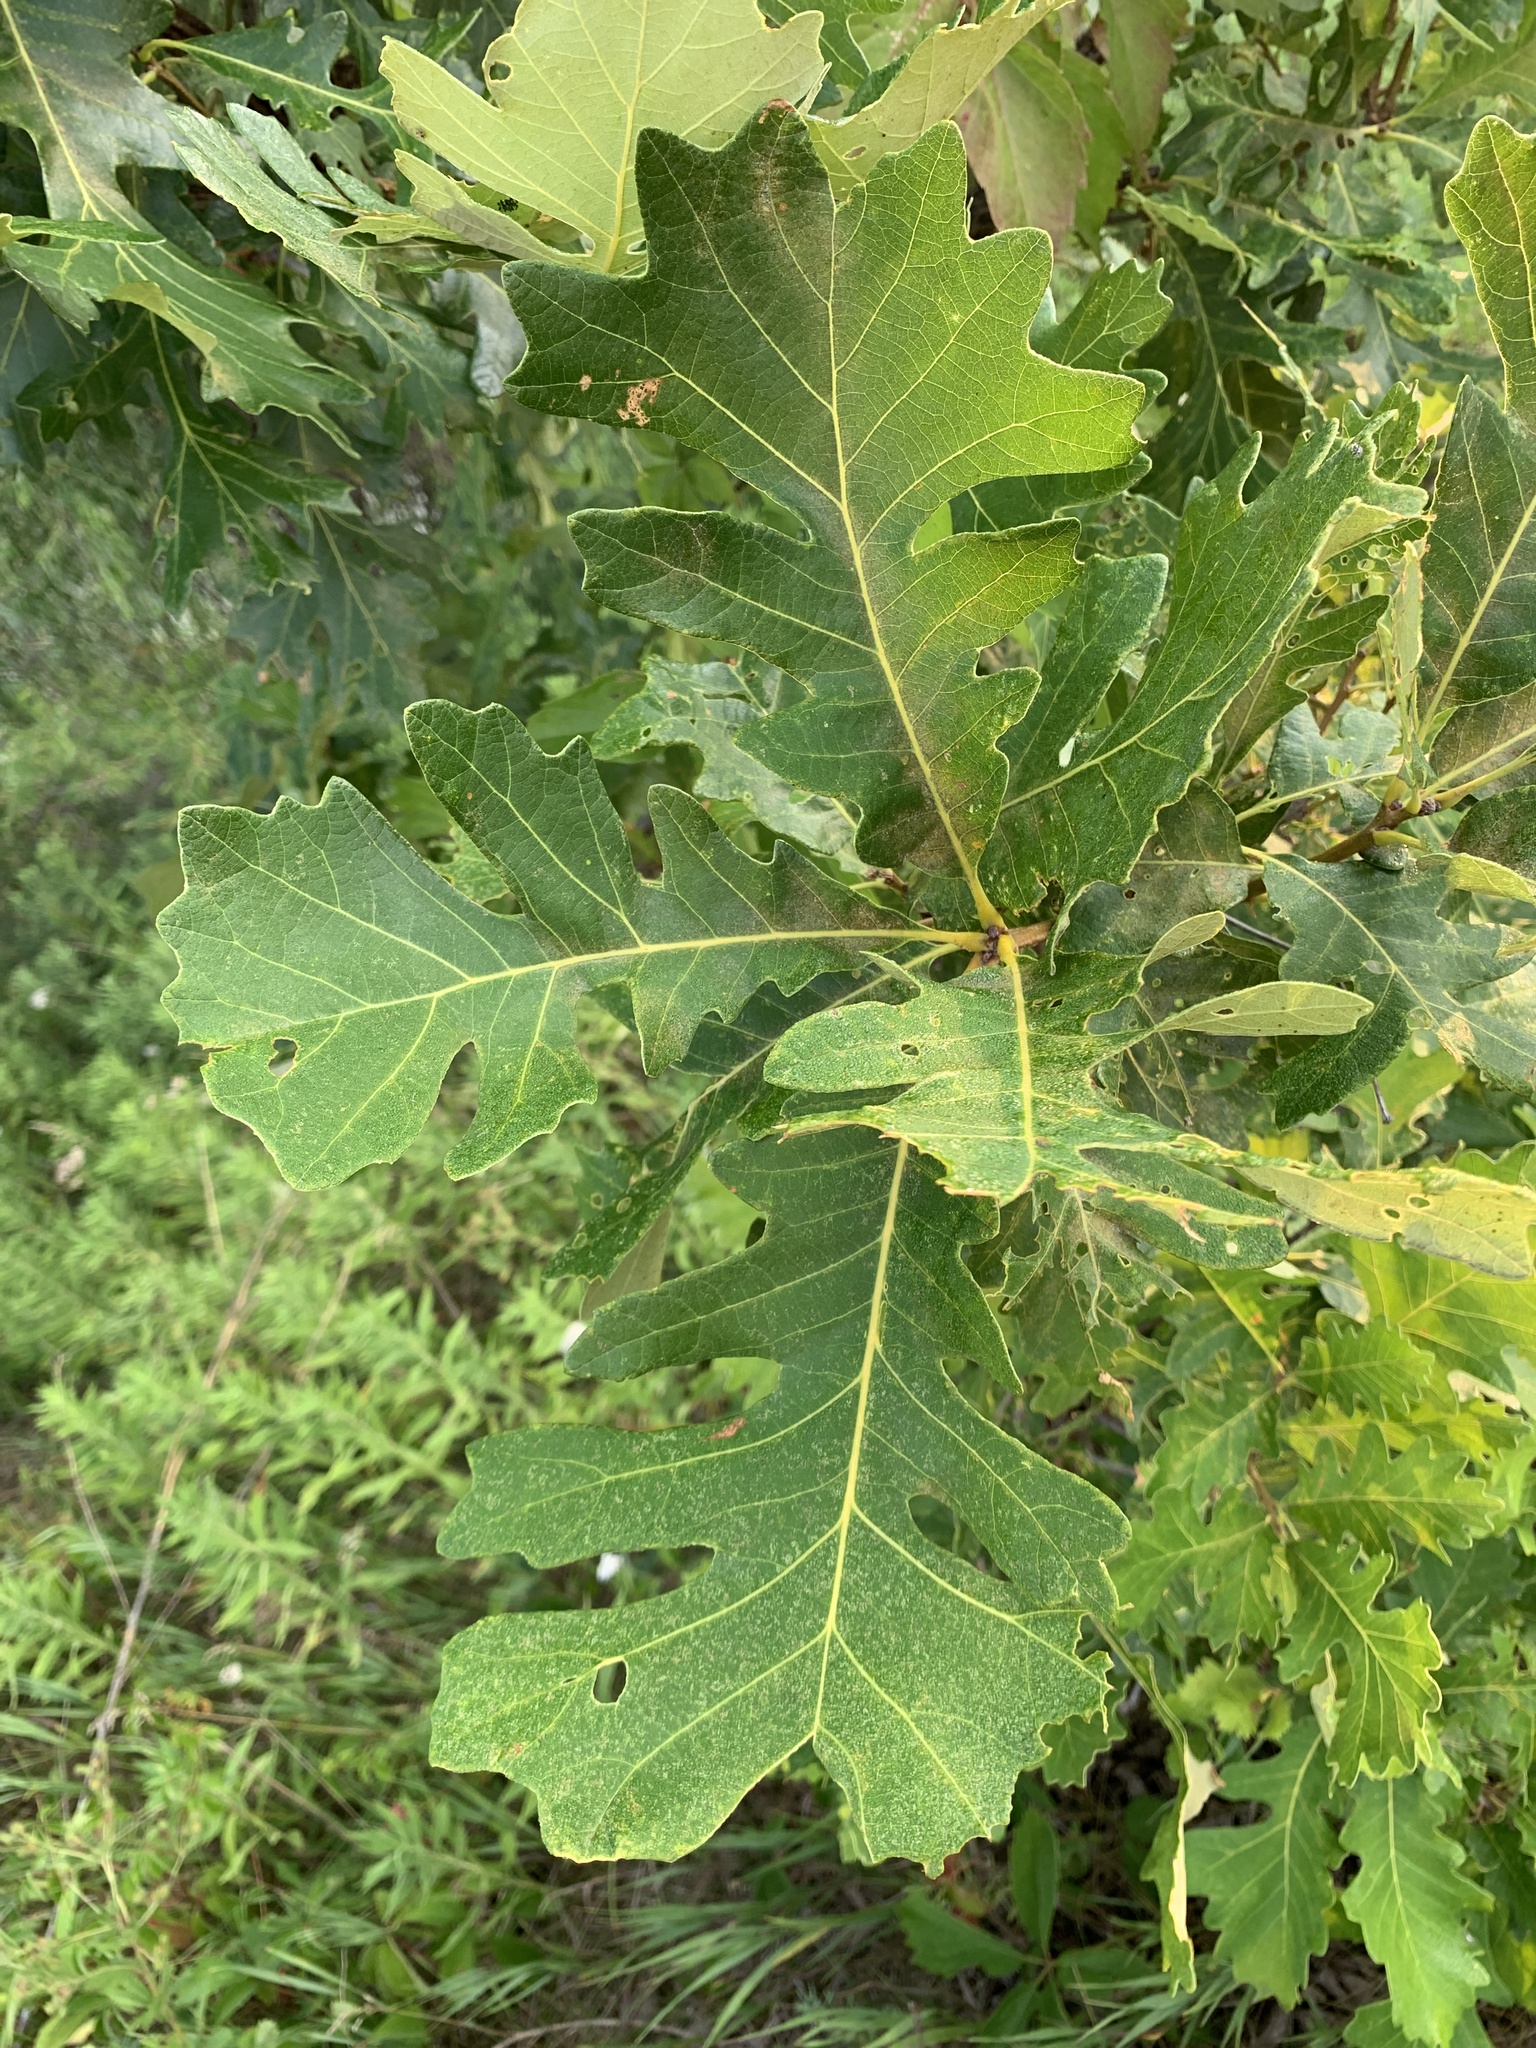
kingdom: Plantae
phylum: Tracheophyta
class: Magnoliopsida
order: Fagales
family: Fagaceae
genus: Quercus
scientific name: Quercus macrocarpa
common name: Bur oak
